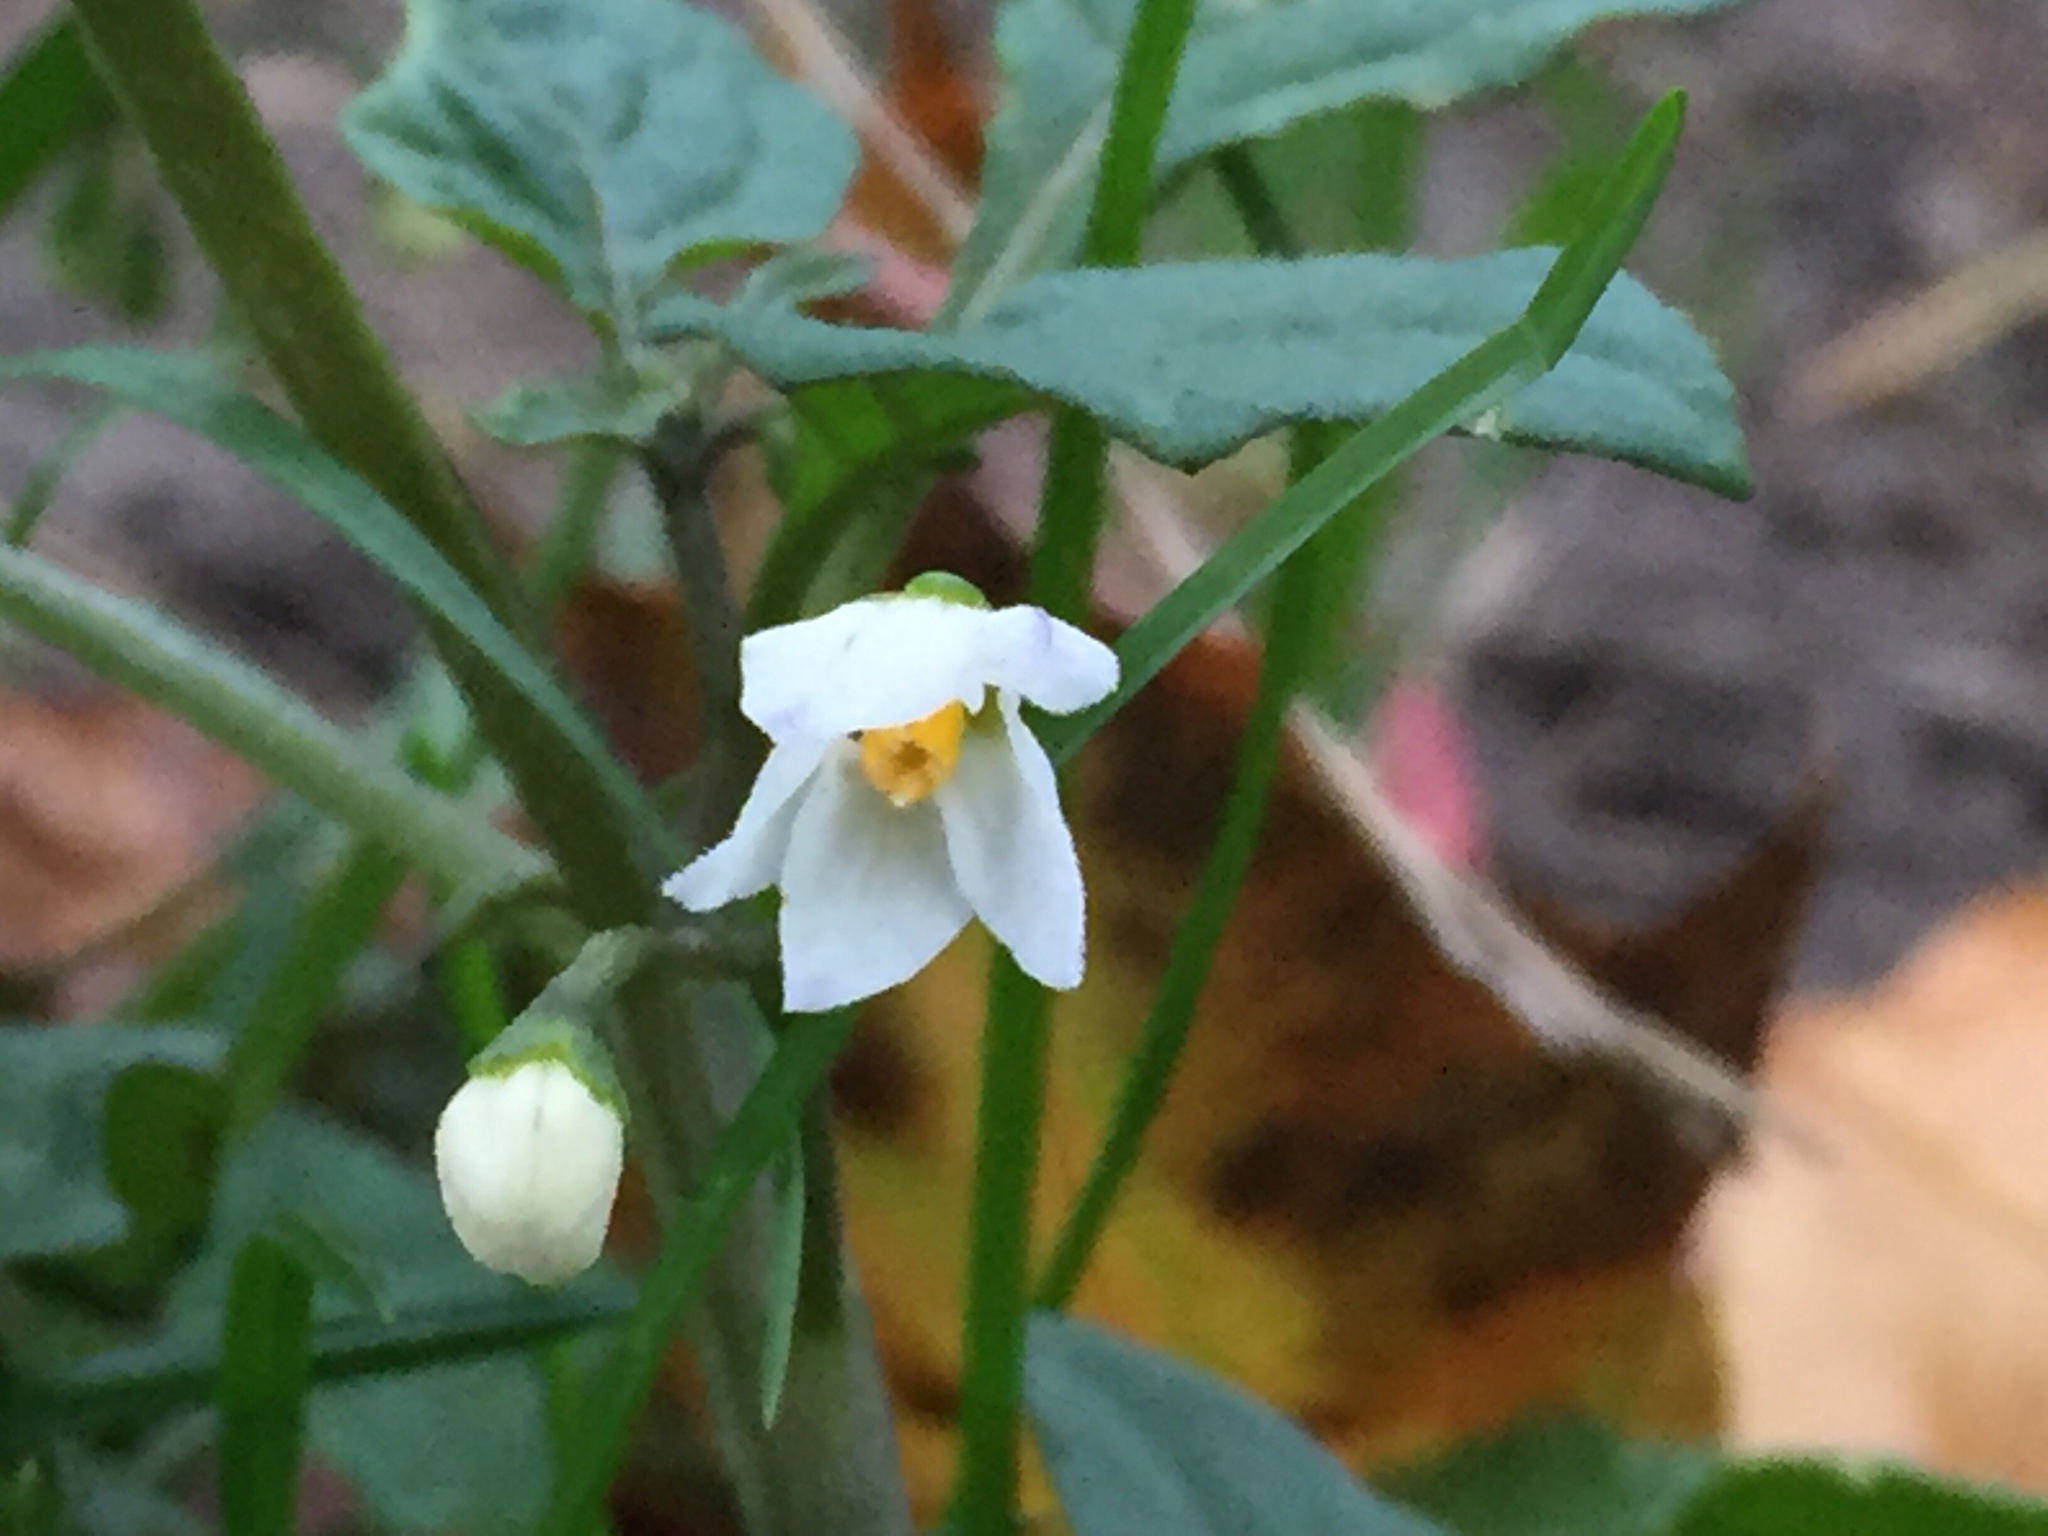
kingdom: Plantae
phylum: Tracheophyta
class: Magnoliopsida
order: Solanales
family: Solanaceae
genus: Solanum
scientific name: Solanum nigrum
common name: Black nightshade
